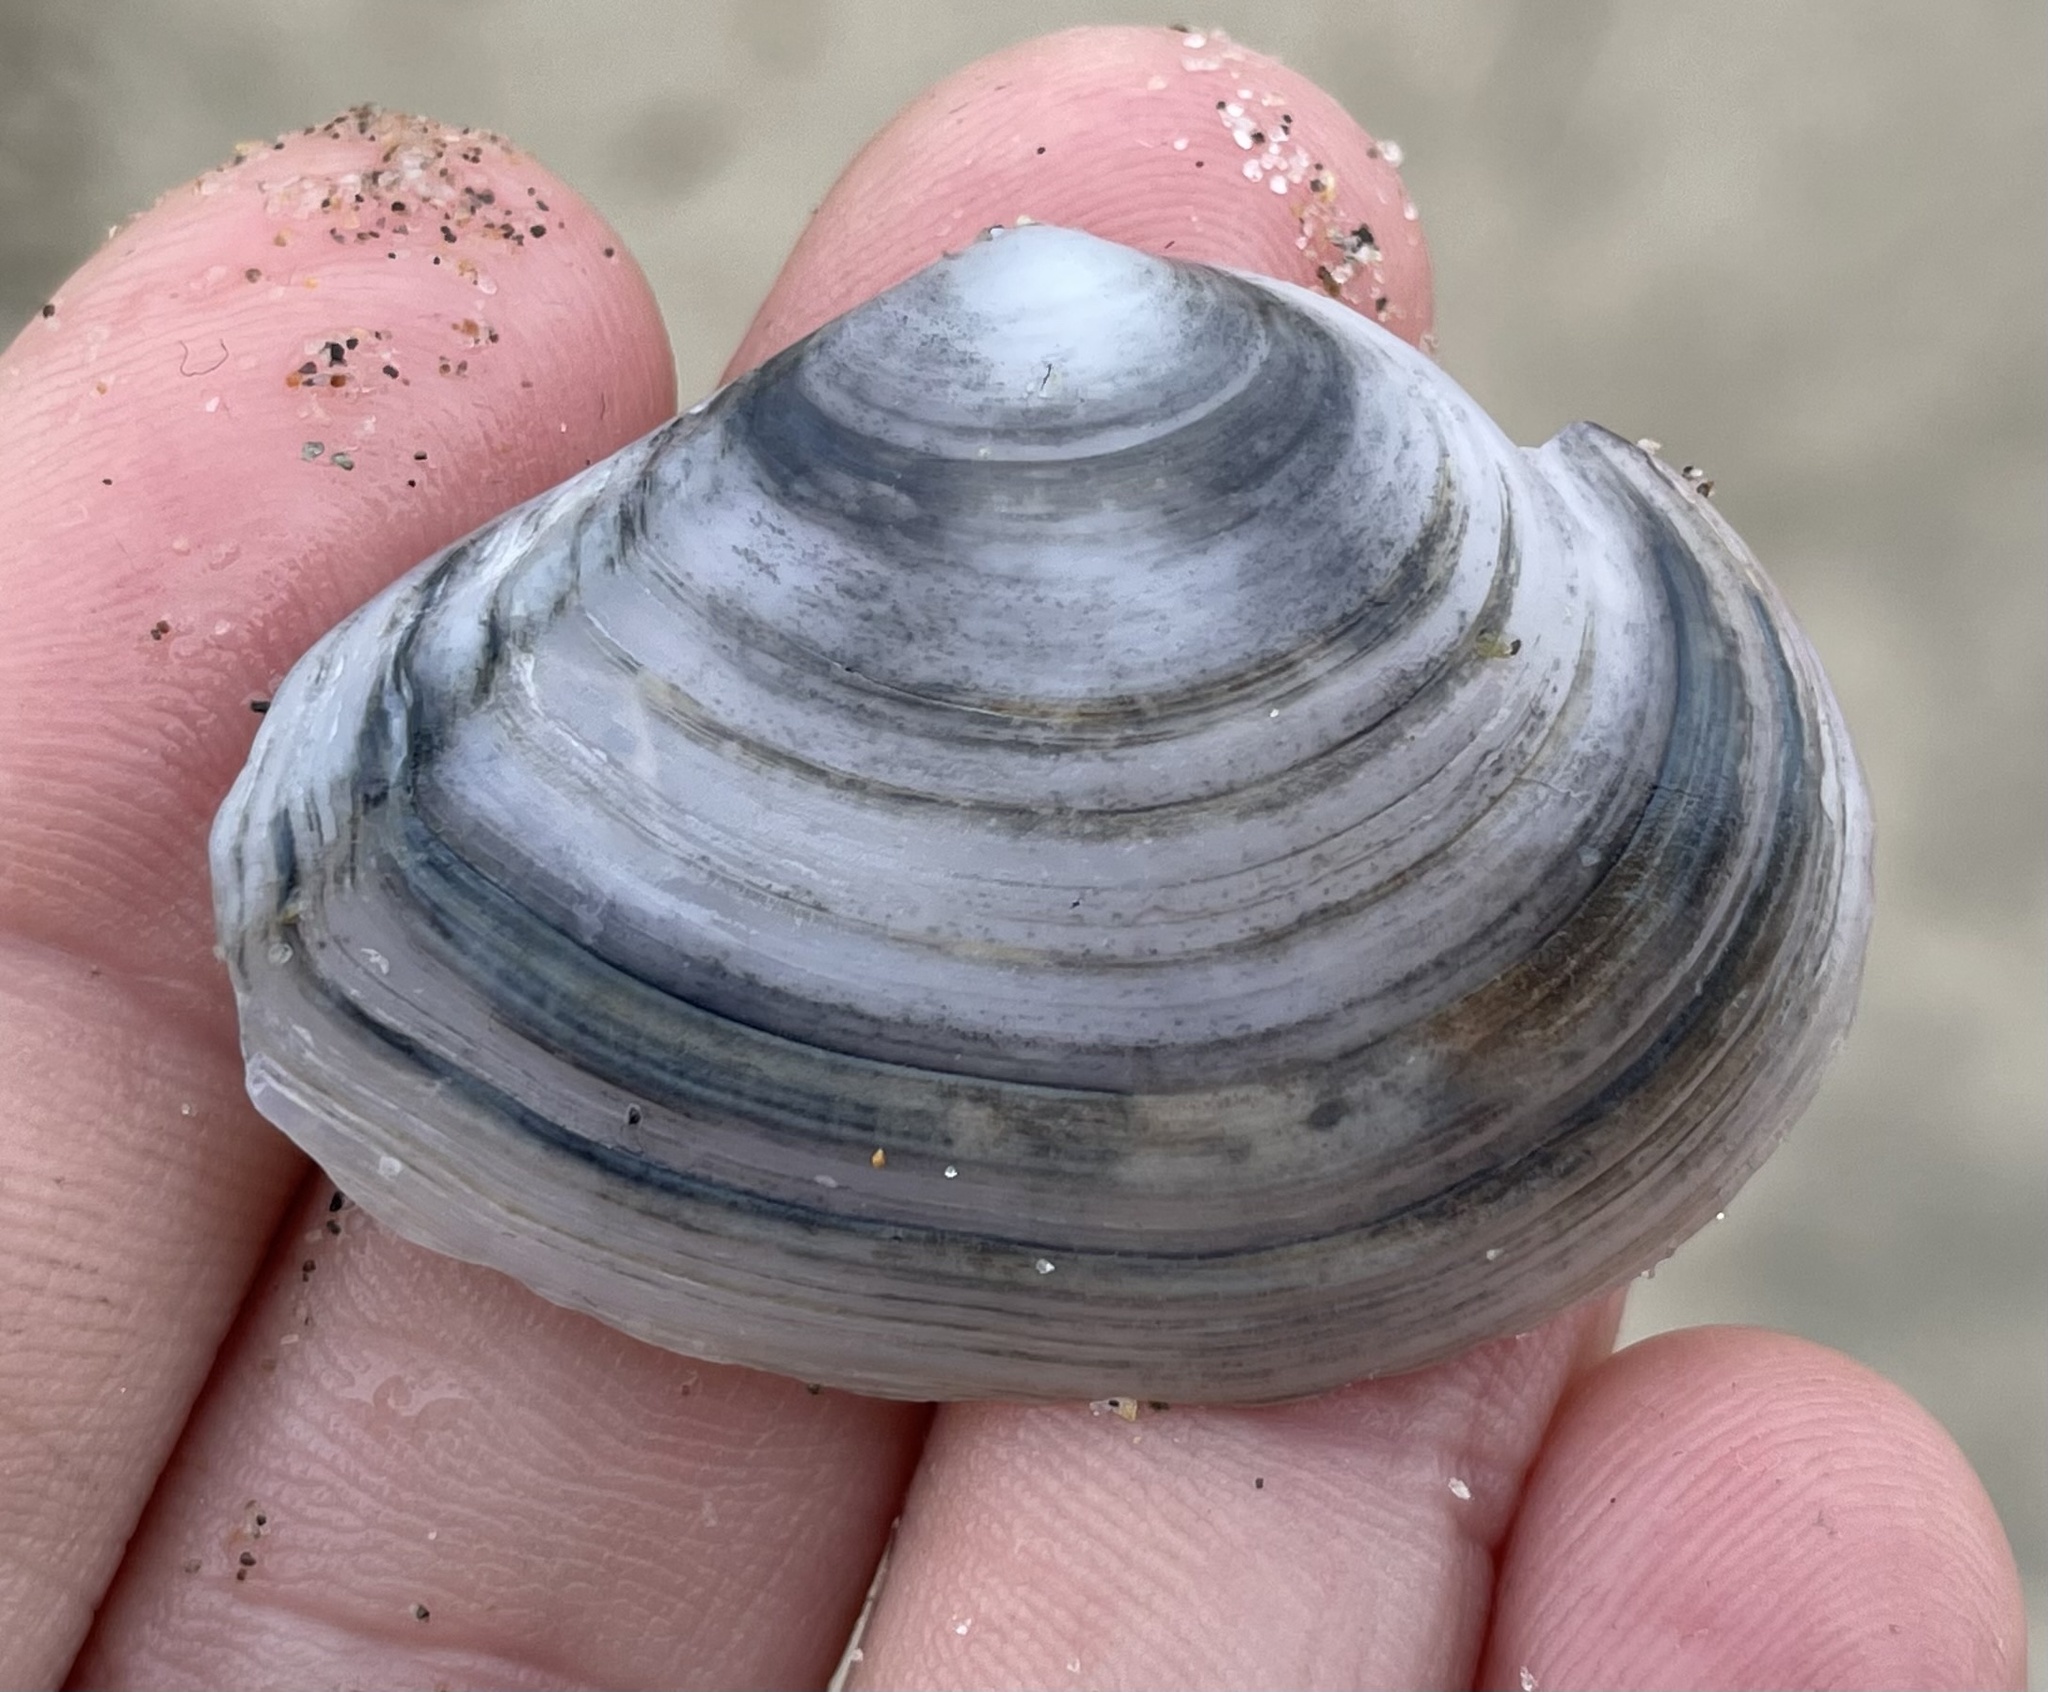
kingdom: Animalia
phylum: Mollusca
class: Bivalvia
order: Cardiida
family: Tellinidae
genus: Macoma
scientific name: Macoma nasuta
